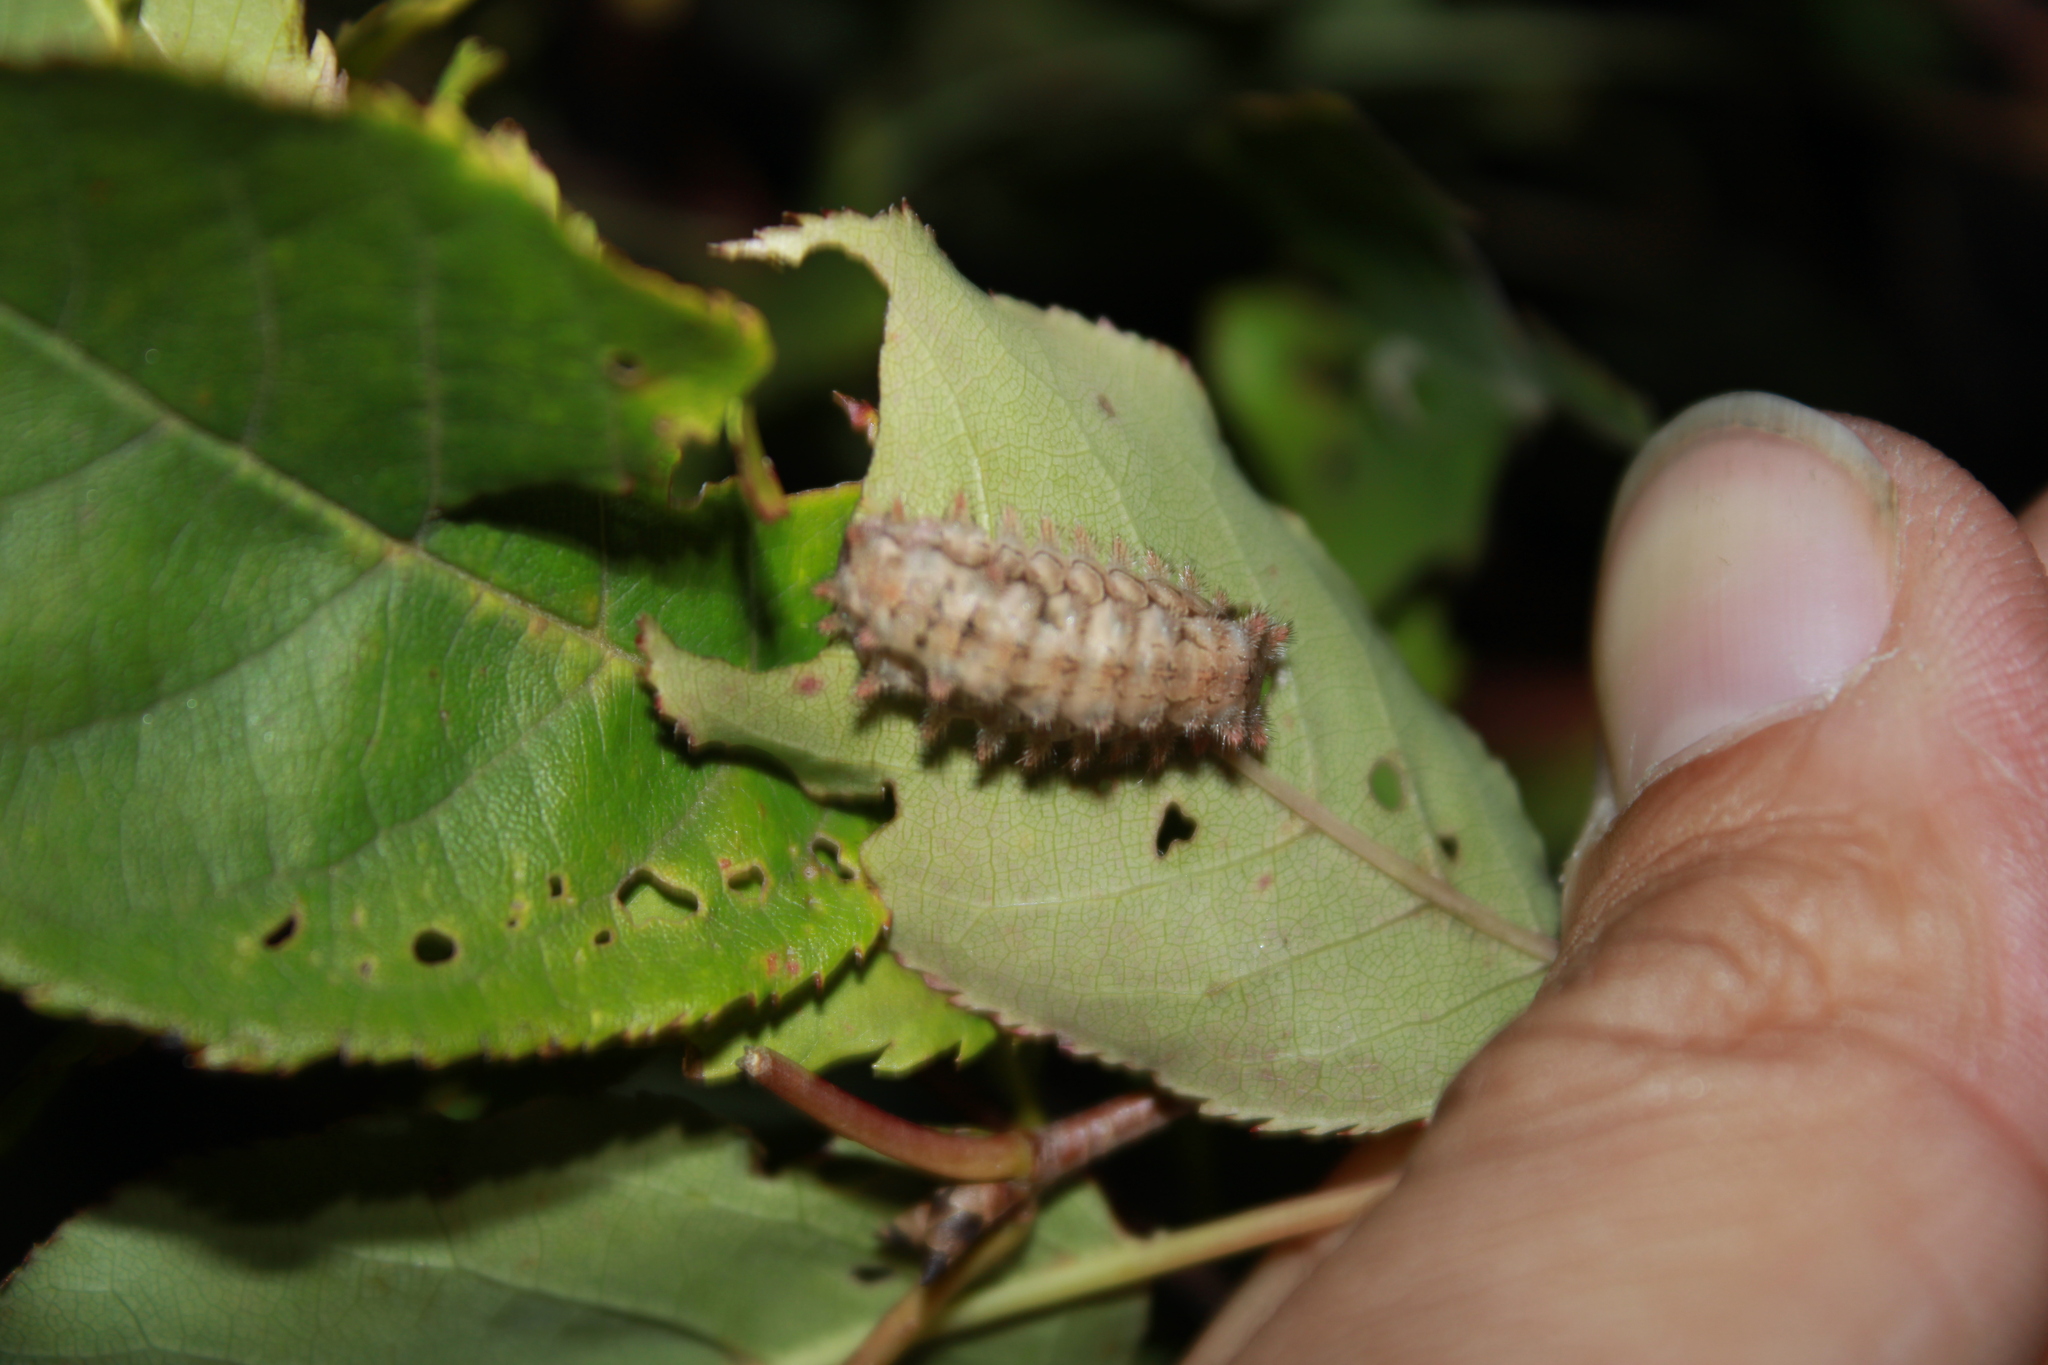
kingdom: Animalia
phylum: Arthropoda
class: Insecta
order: Lepidoptera
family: Limacodidae
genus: Euclea
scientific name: Euclea delphinii
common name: Spiny oak-slug moth
